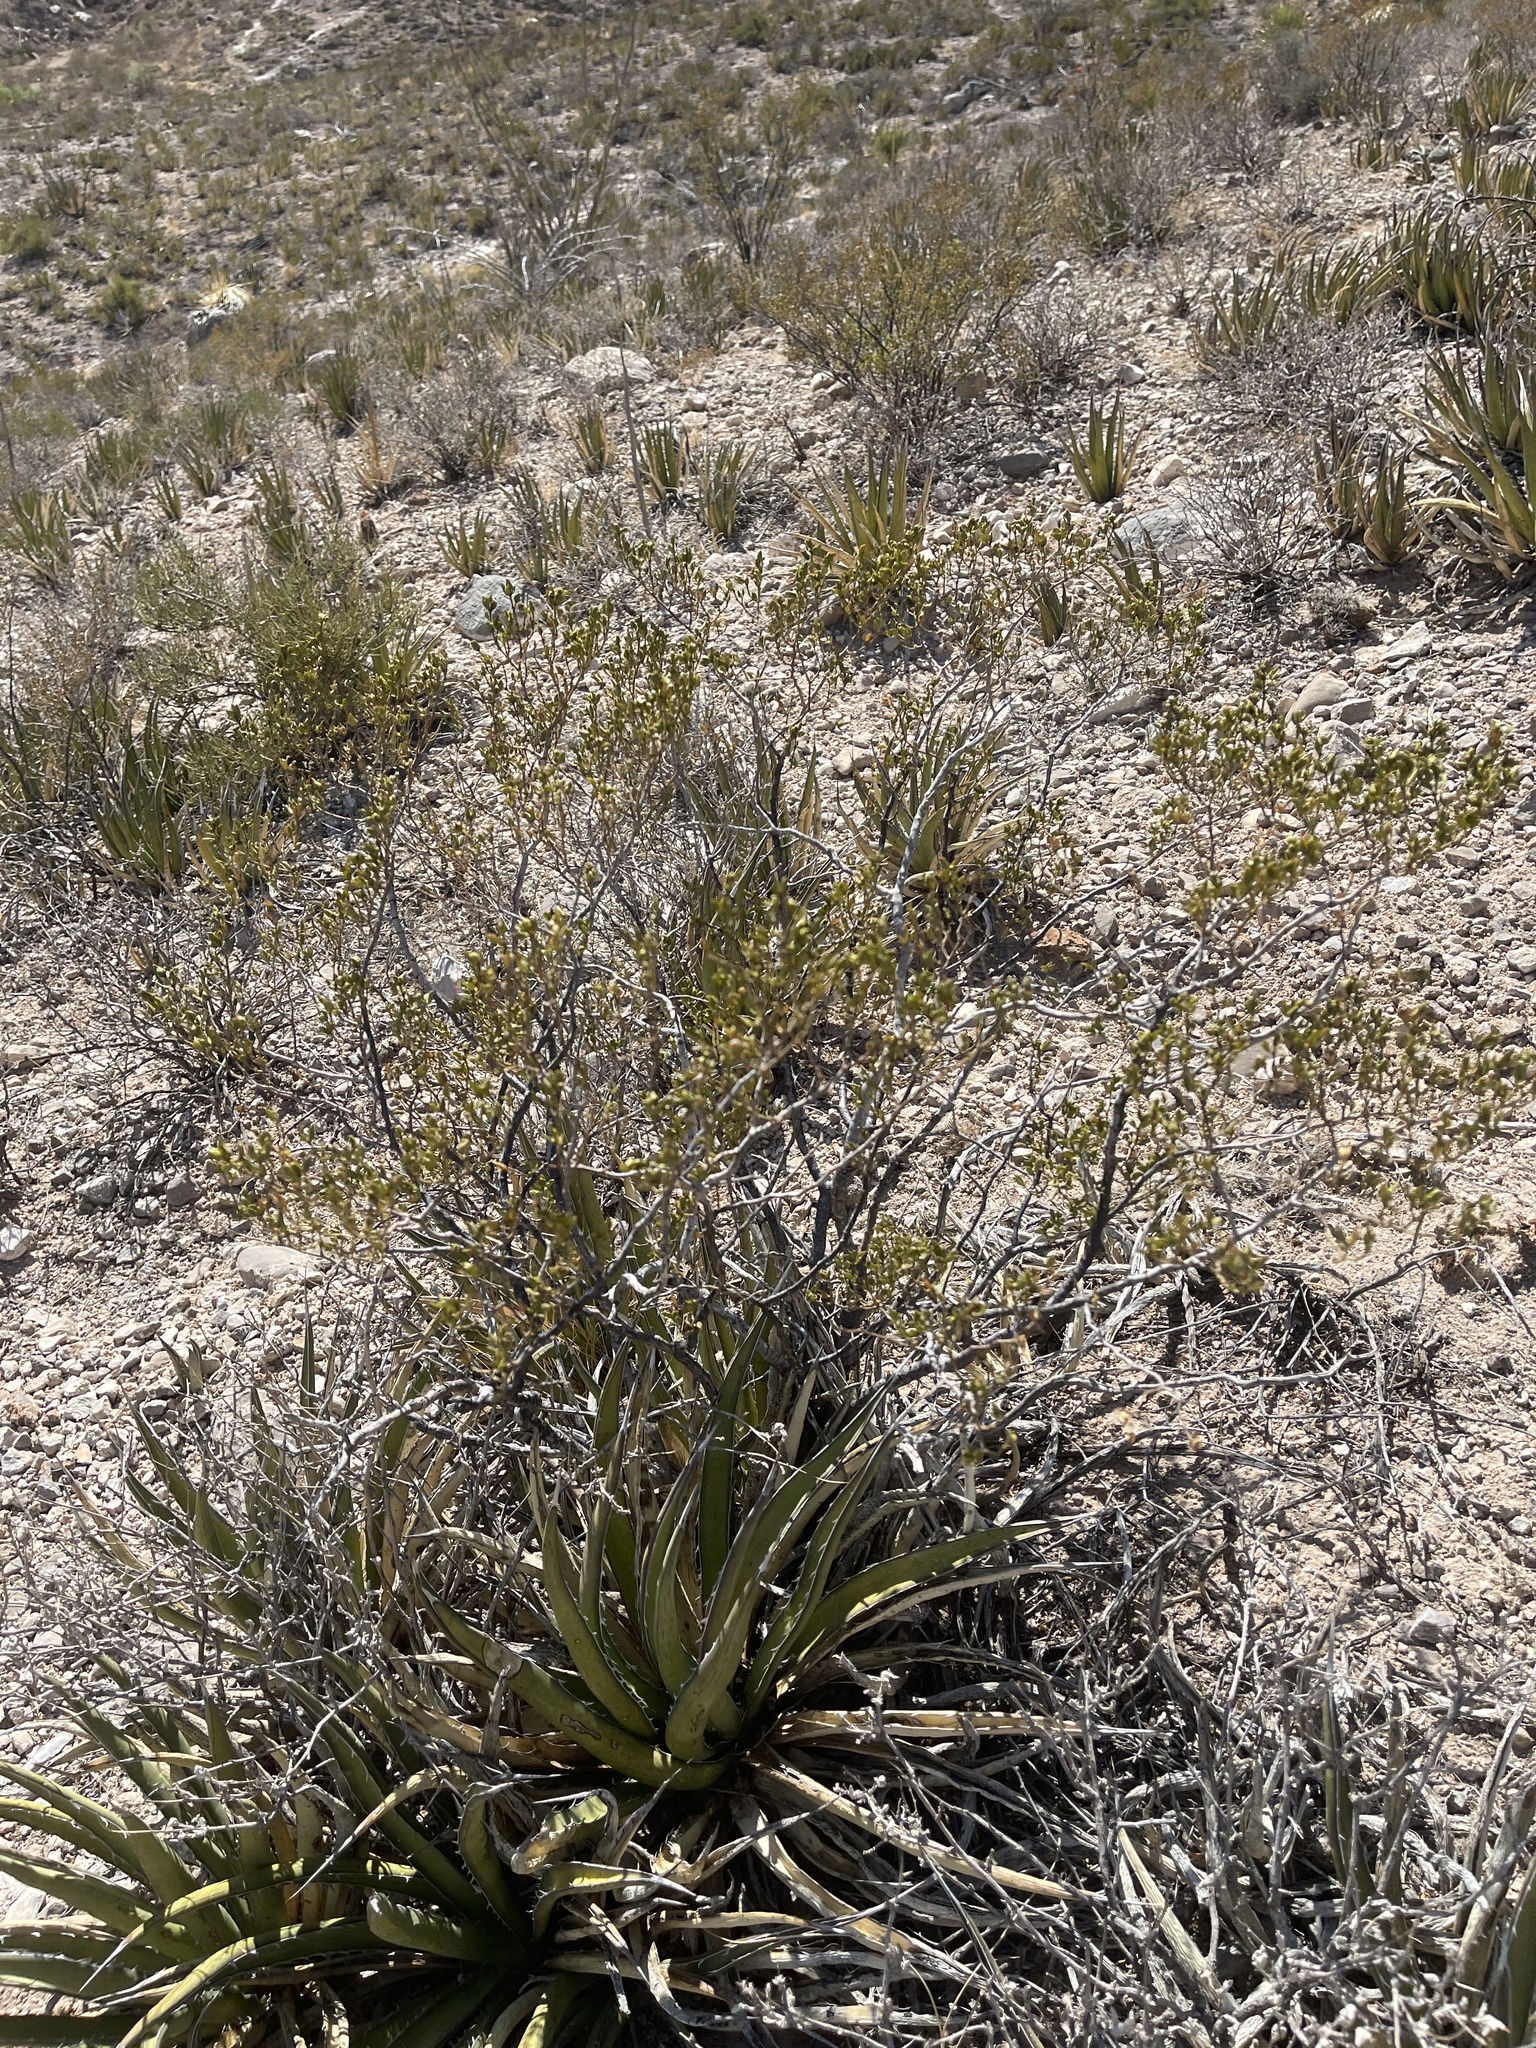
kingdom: Plantae
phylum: Tracheophyta
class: Magnoliopsida
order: Zygophyllales
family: Zygophyllaceae
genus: Larrea
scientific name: Larrea tridentata
